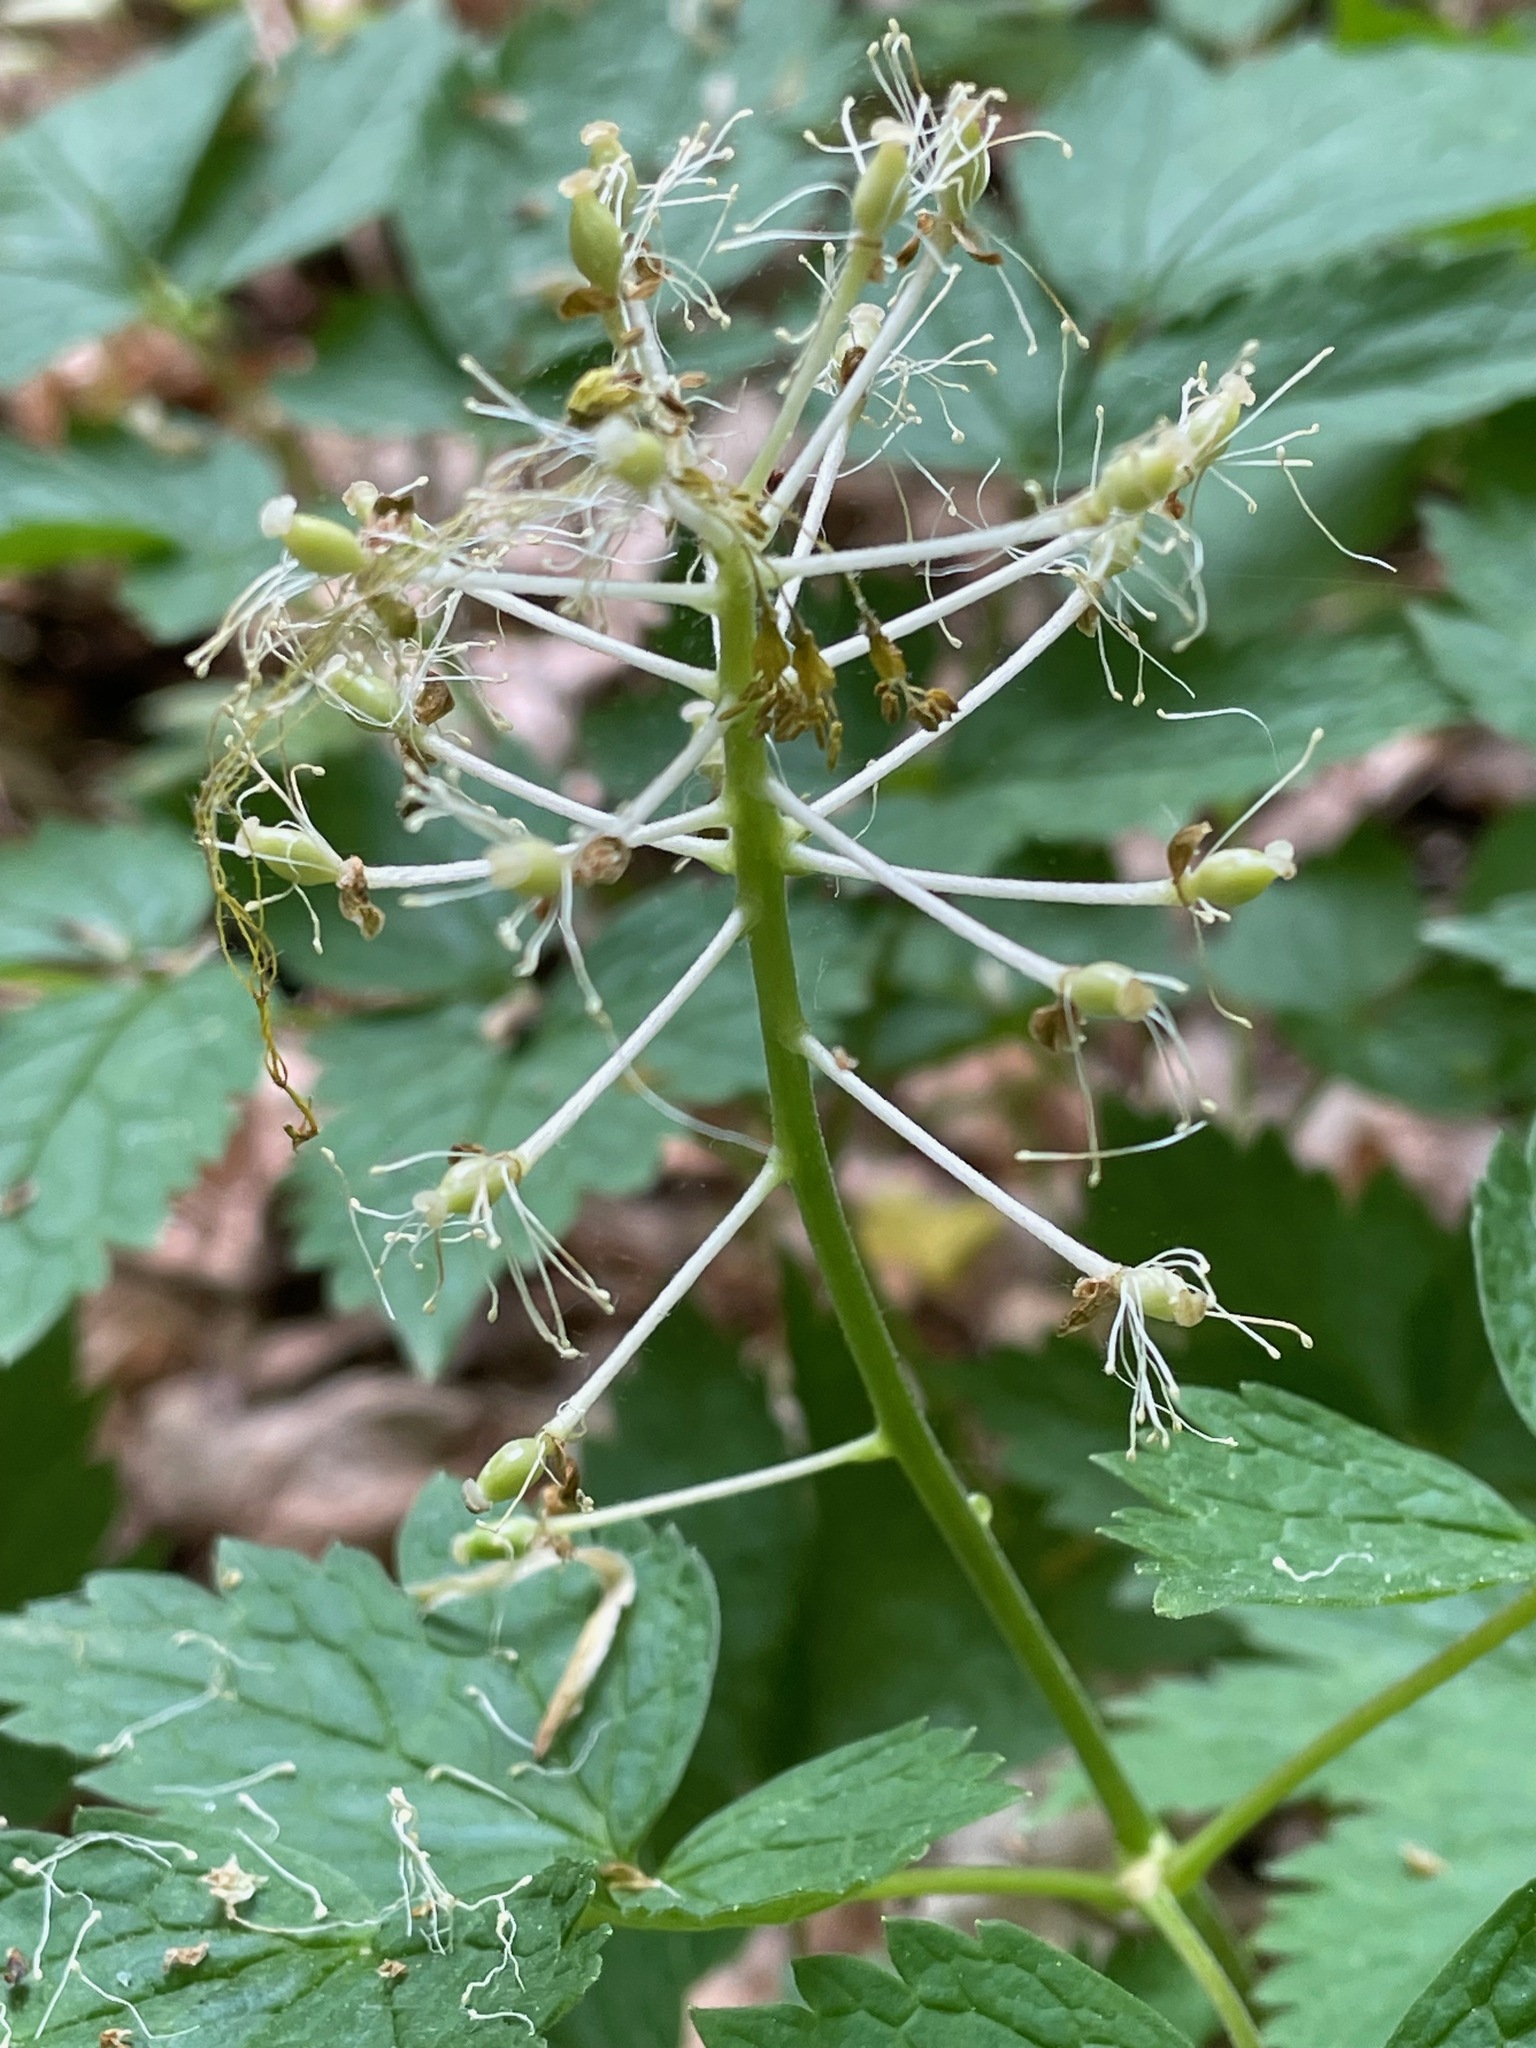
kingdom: Plantae
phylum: Tracheophyta
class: Magnoliopsida
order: Ranunculales
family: Ranunculaceae
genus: Actaea
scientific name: Actaea rubra
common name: Red baneberry
